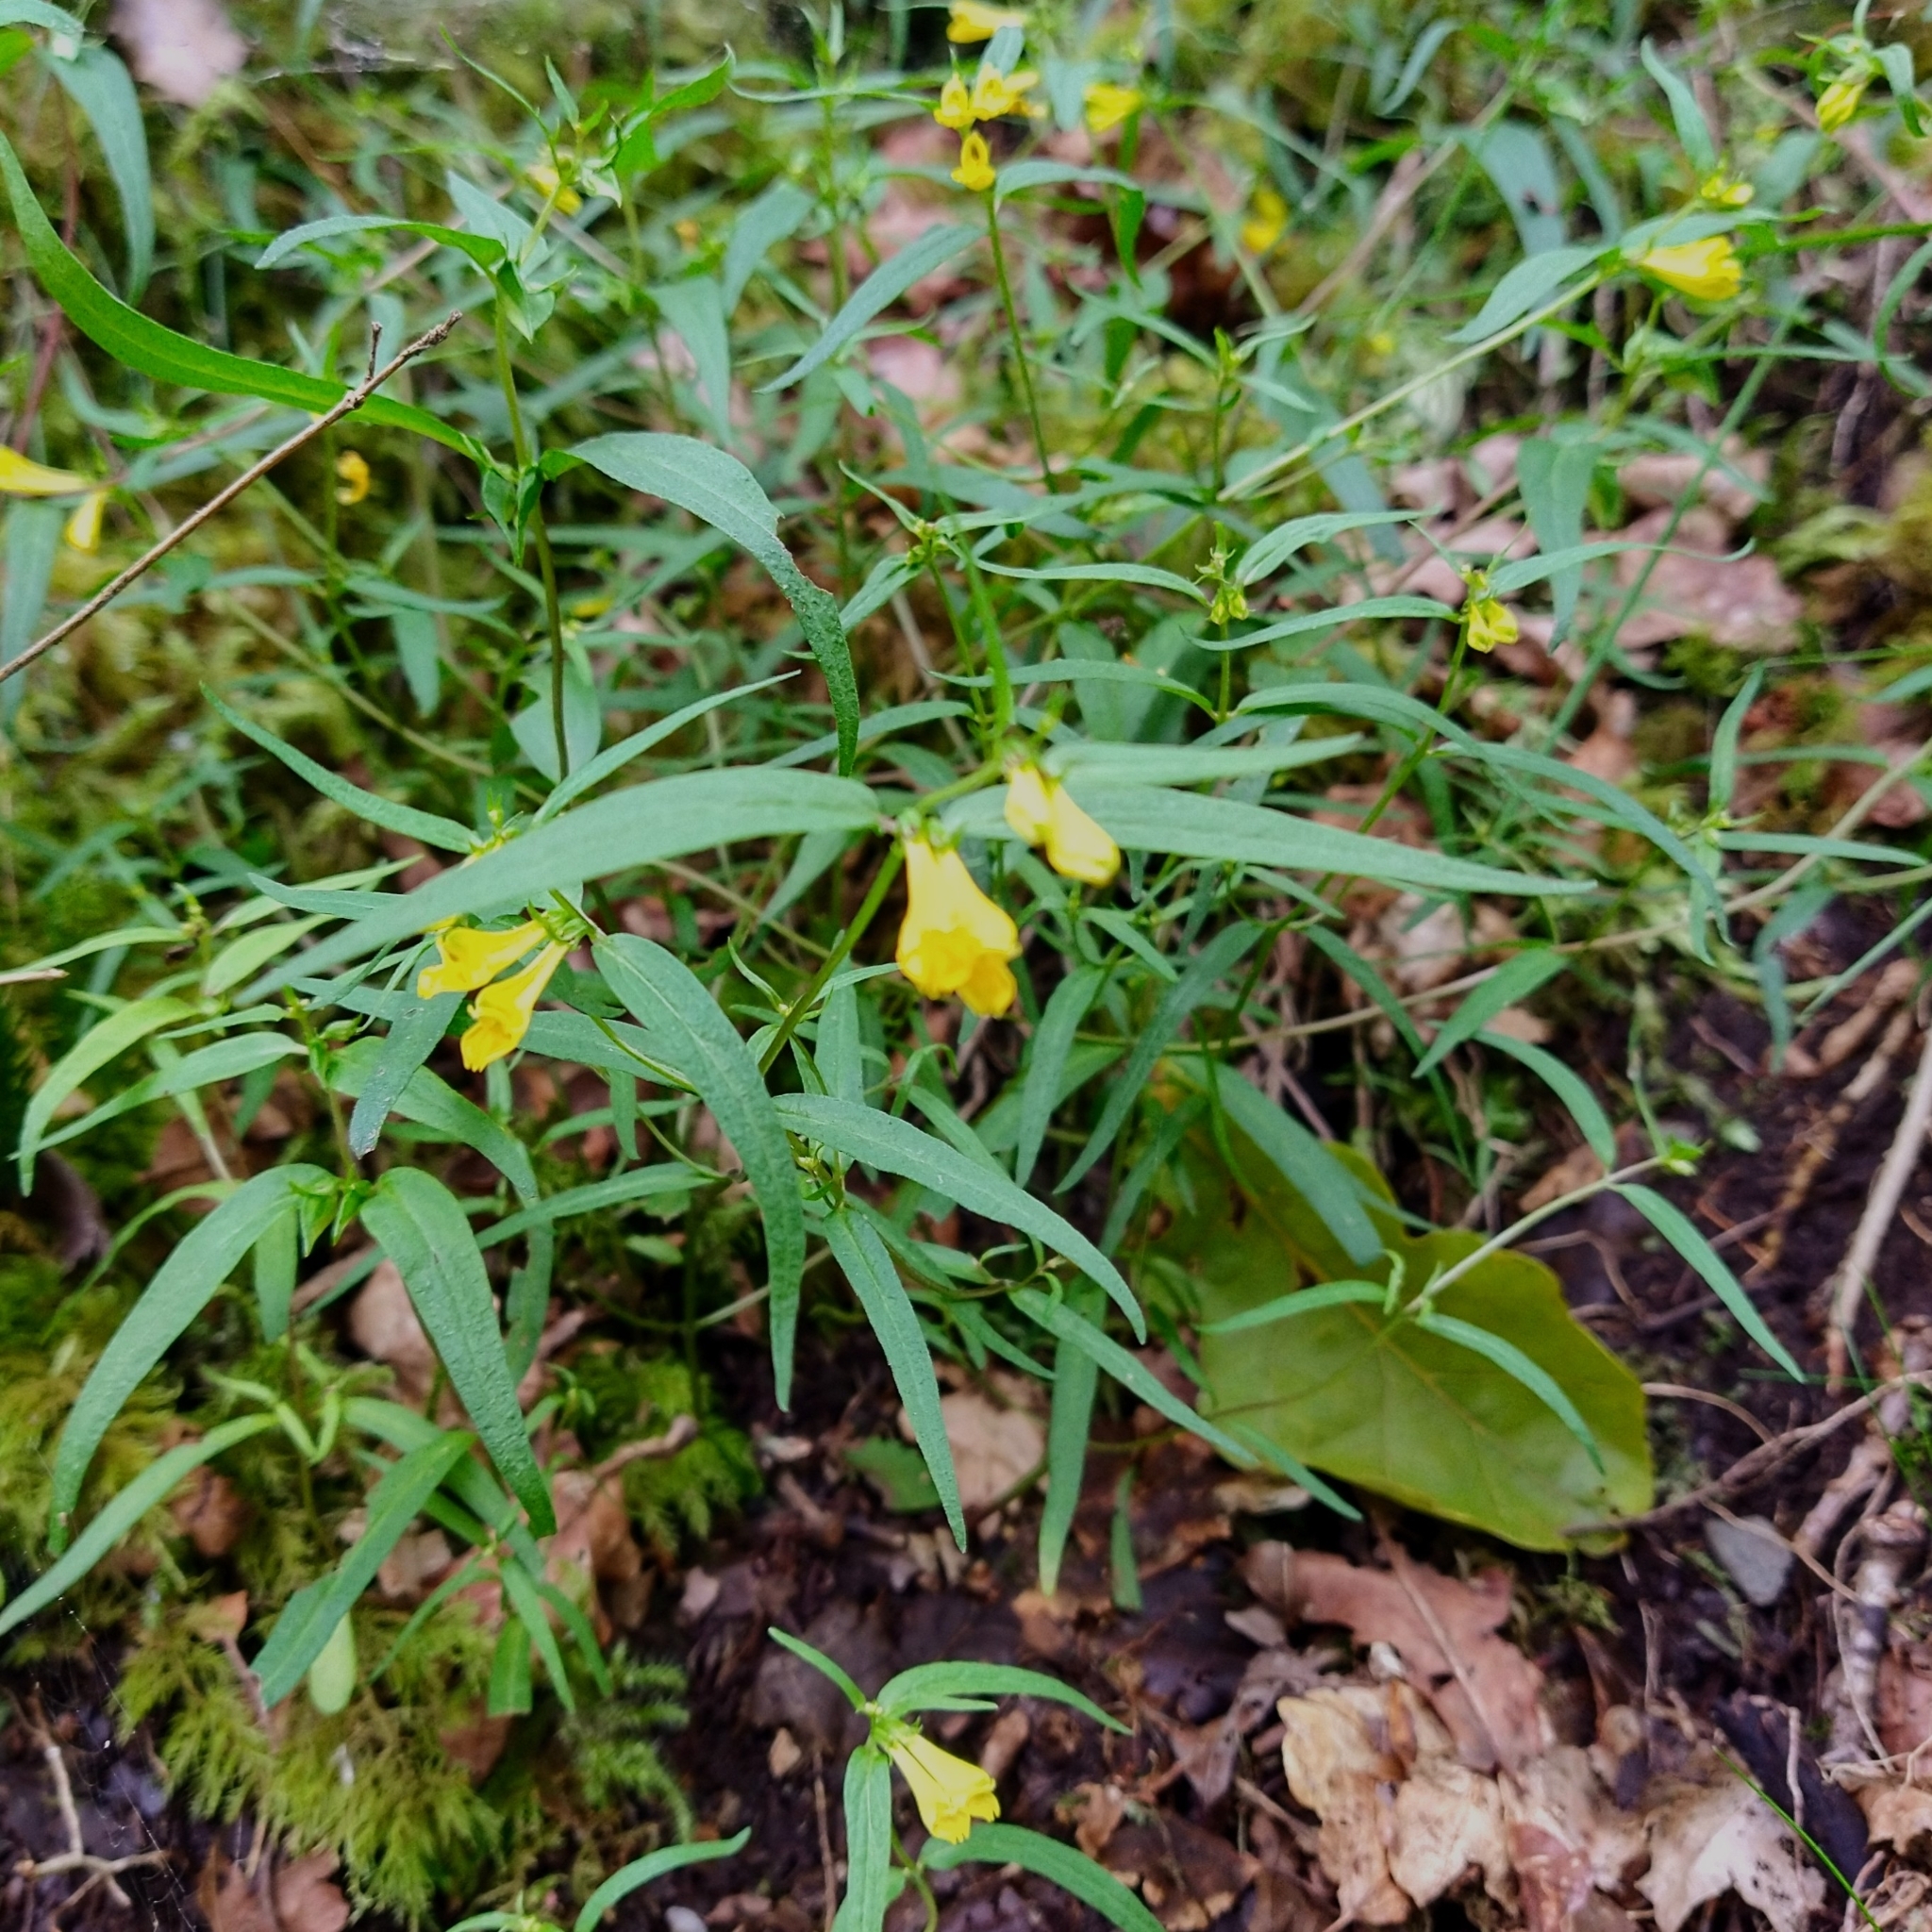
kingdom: Plantae
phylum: Tracheophyta
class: Magnoliopsida
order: Lamiales
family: Orobanchaceae
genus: Melampyrum
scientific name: Melampyrum pratense
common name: Common cow-wheat
